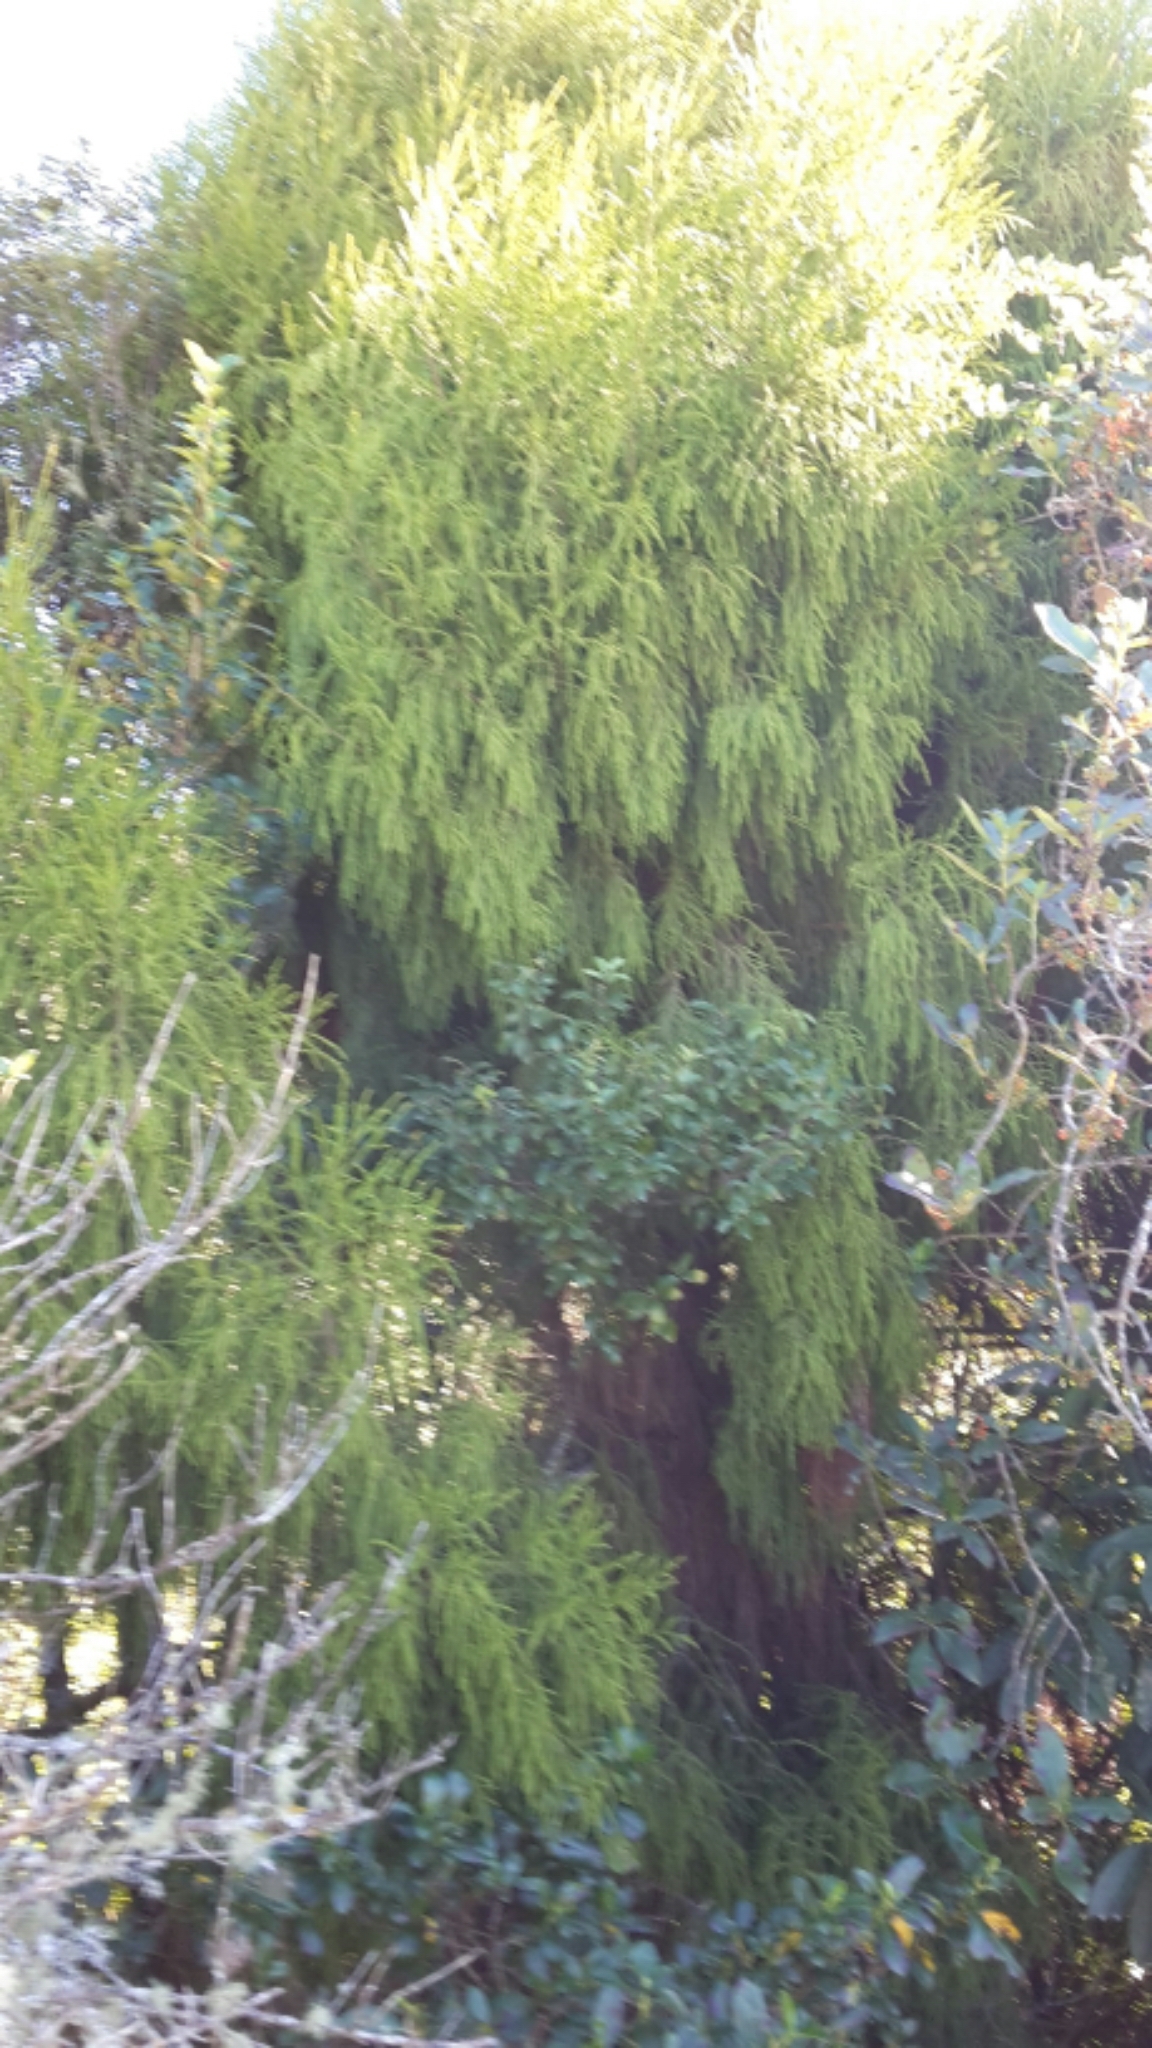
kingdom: Plantae
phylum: Tracheophyta
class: Pinopsida
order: Pinales
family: Podocarpaceae
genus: Dacrydium
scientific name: Dacrydium cupressinum
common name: Red pine
